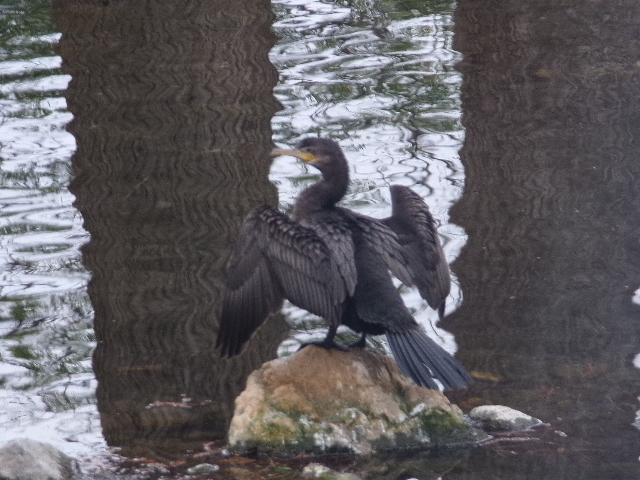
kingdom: Animalia
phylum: Chordata
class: Aves
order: Suliformes
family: Phalacrocoracidae
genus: Phalacrocorax
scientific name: Phalacrocorax brasilianus
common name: Neotropic cormorant
